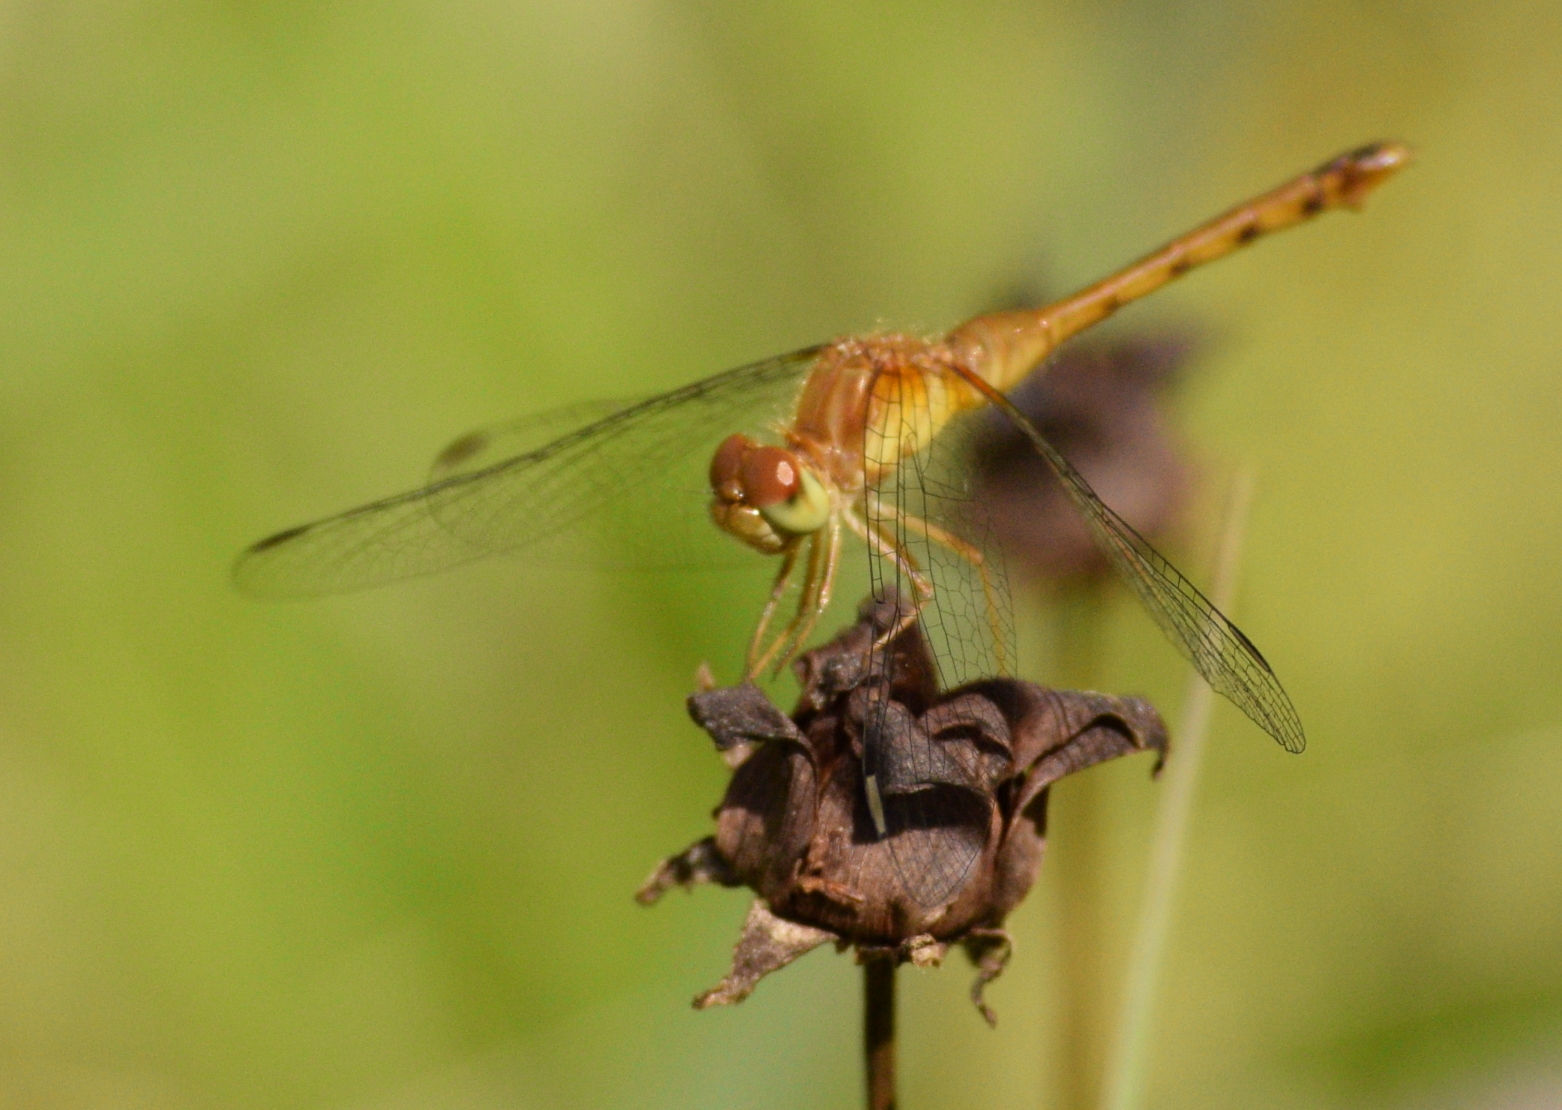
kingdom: Animalia
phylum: Arthropoda
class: Insecta
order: Odonata
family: Libellulidae
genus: Sympetrum
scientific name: Sympetrum vicinum
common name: Autumn meadowhawk
